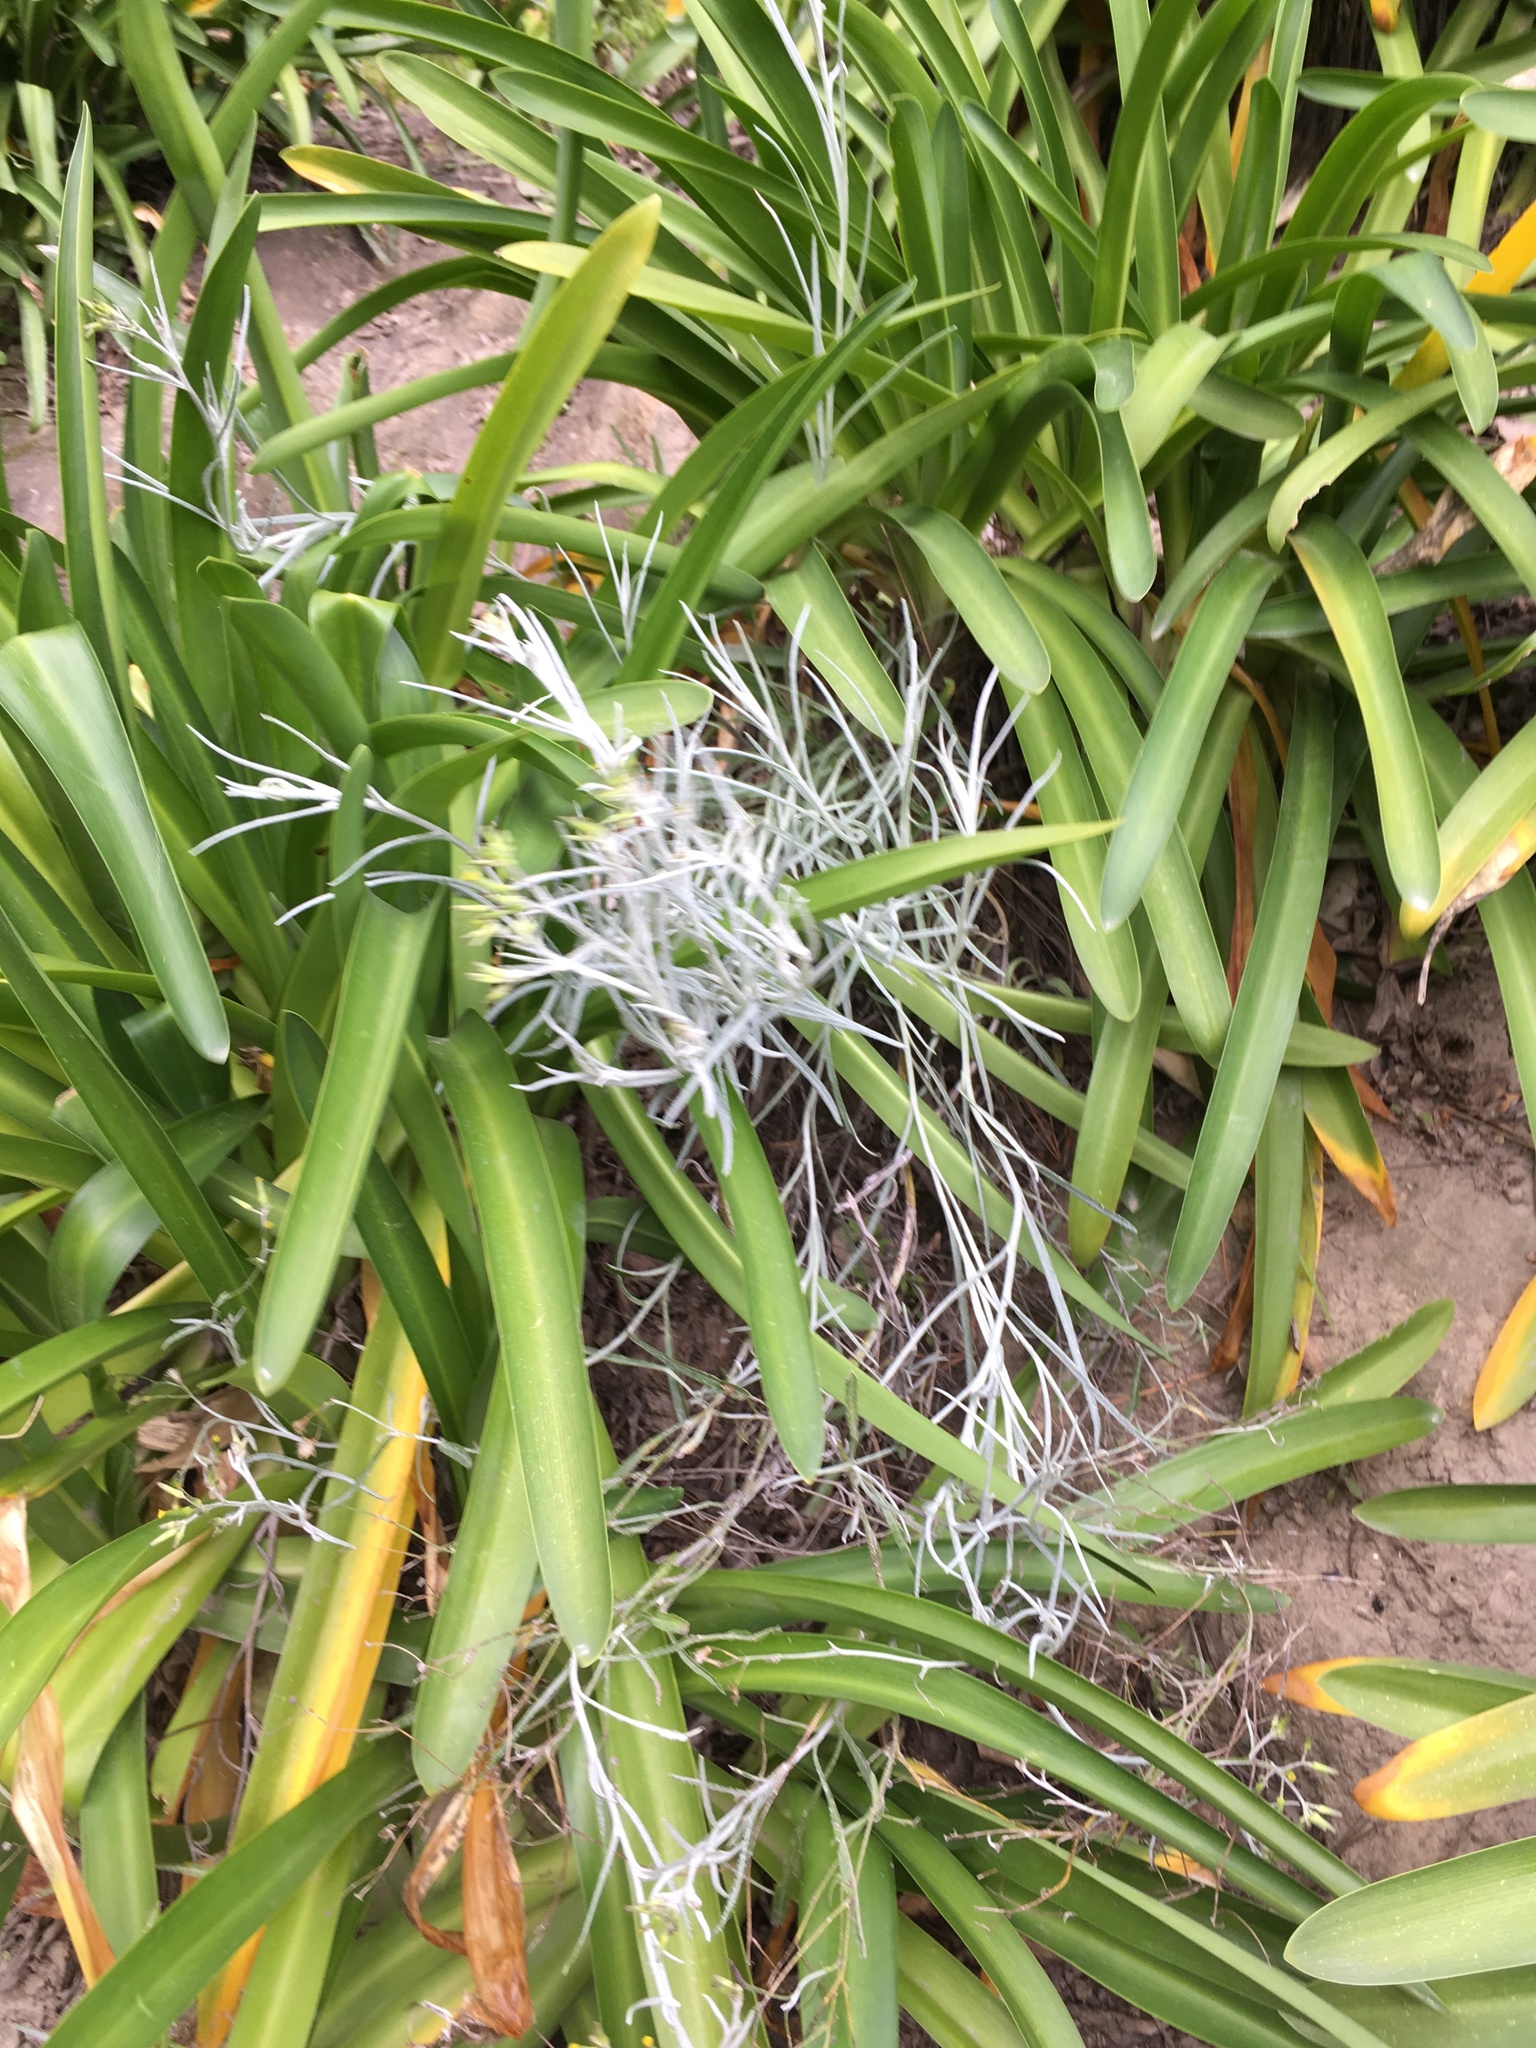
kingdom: Plantae
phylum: Tracheophyta
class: Magnoliopsida
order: Asterales
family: Asteraceae
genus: Senecio
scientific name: Senecio quadridentatus
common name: Cotton fireweed
